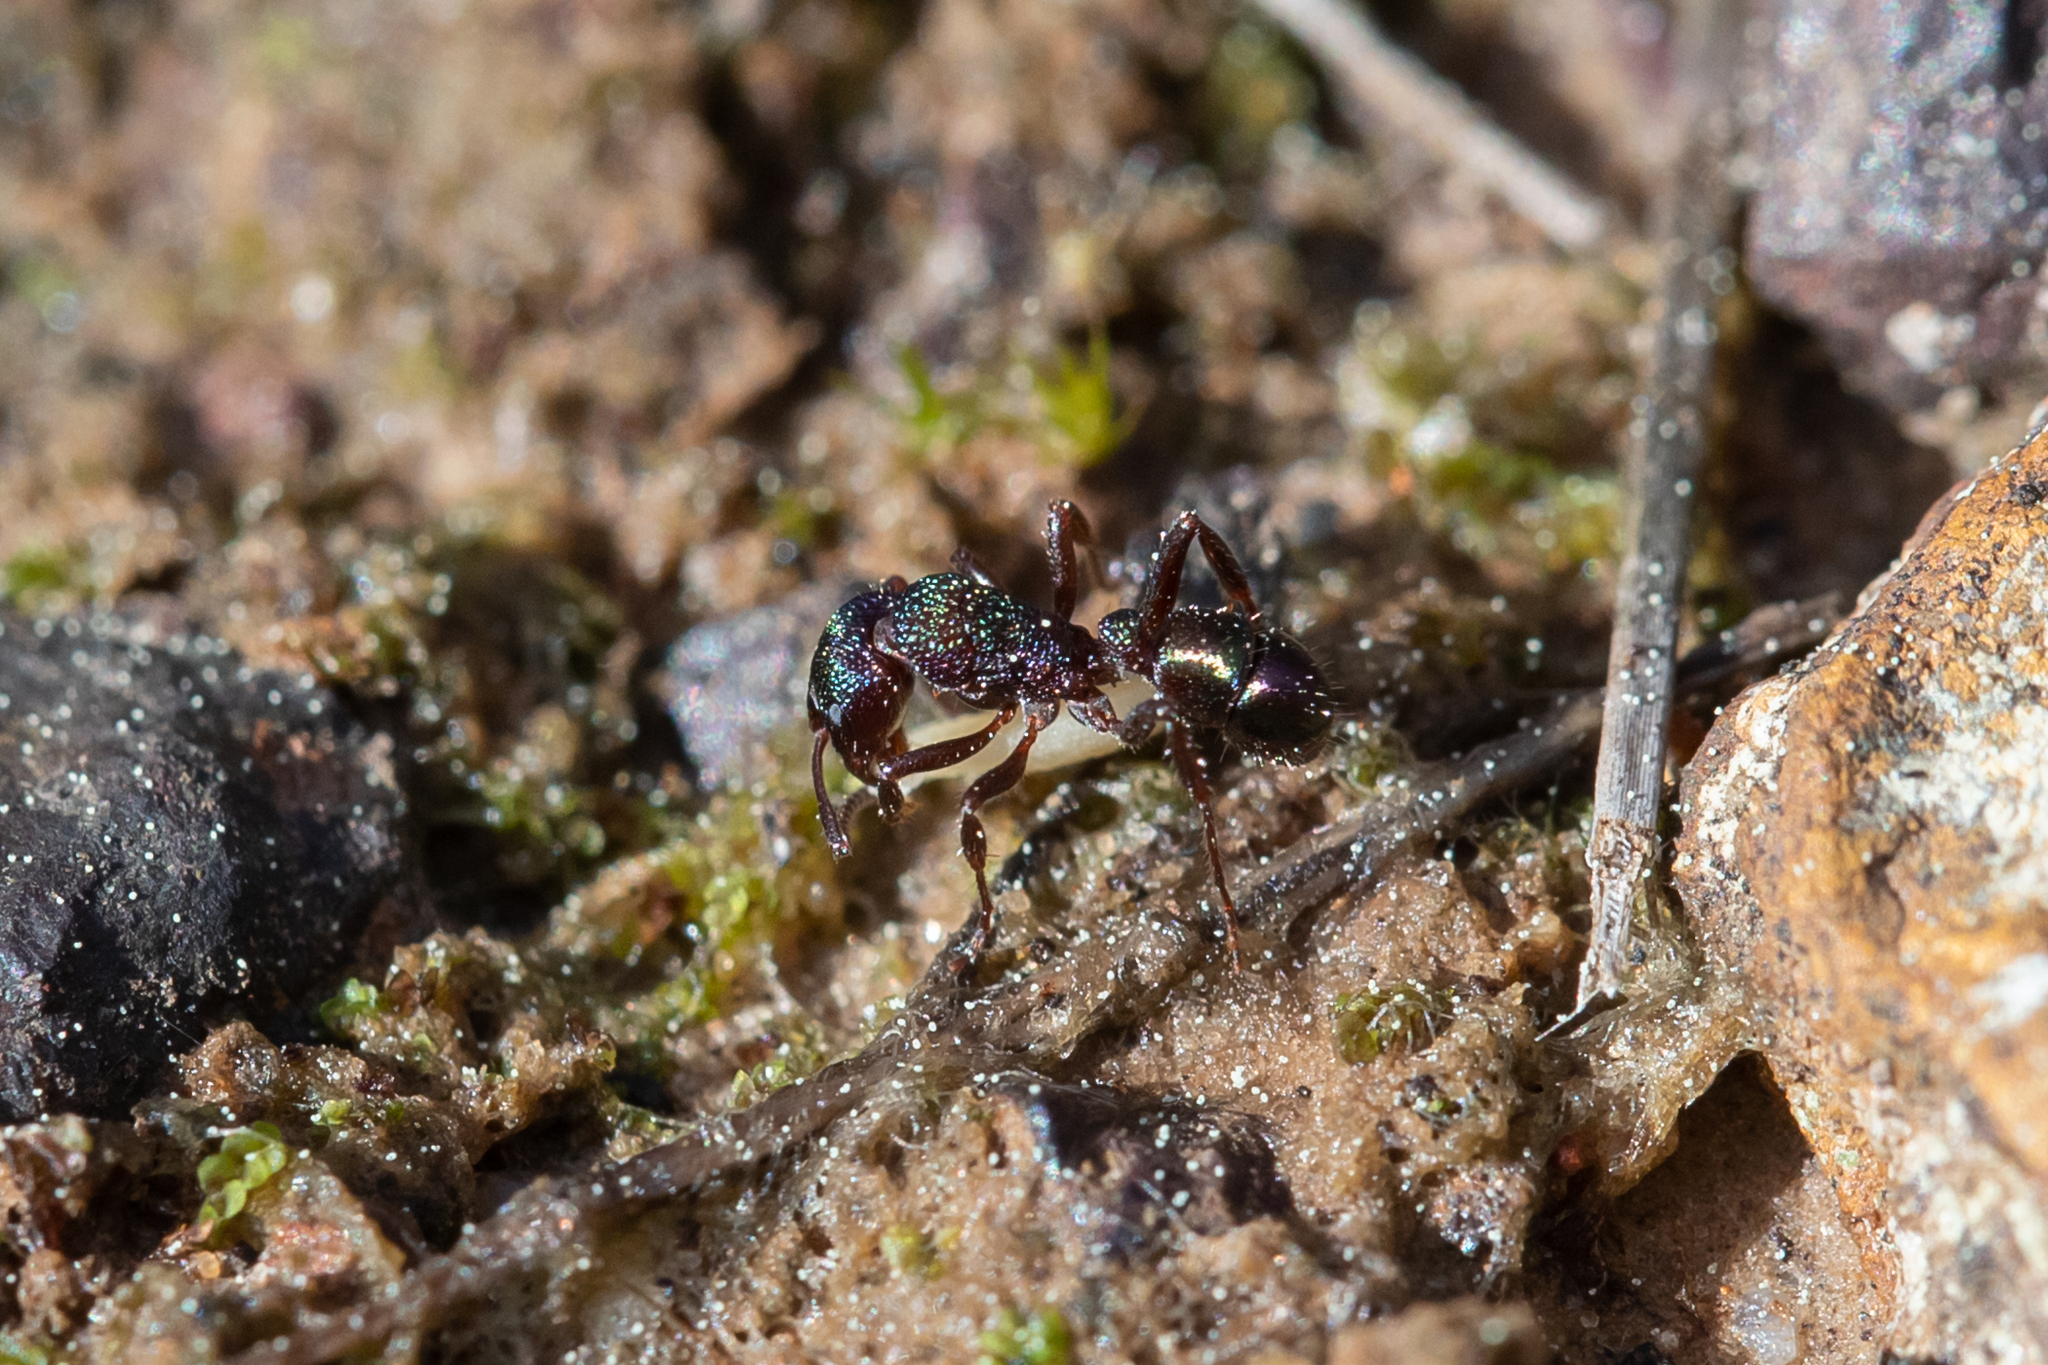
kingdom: Animalia
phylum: Arthropoda
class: Insecta
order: Hymenoptera
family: Formicidae
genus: Rhytidoponera
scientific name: Rhytidoponera metallica
